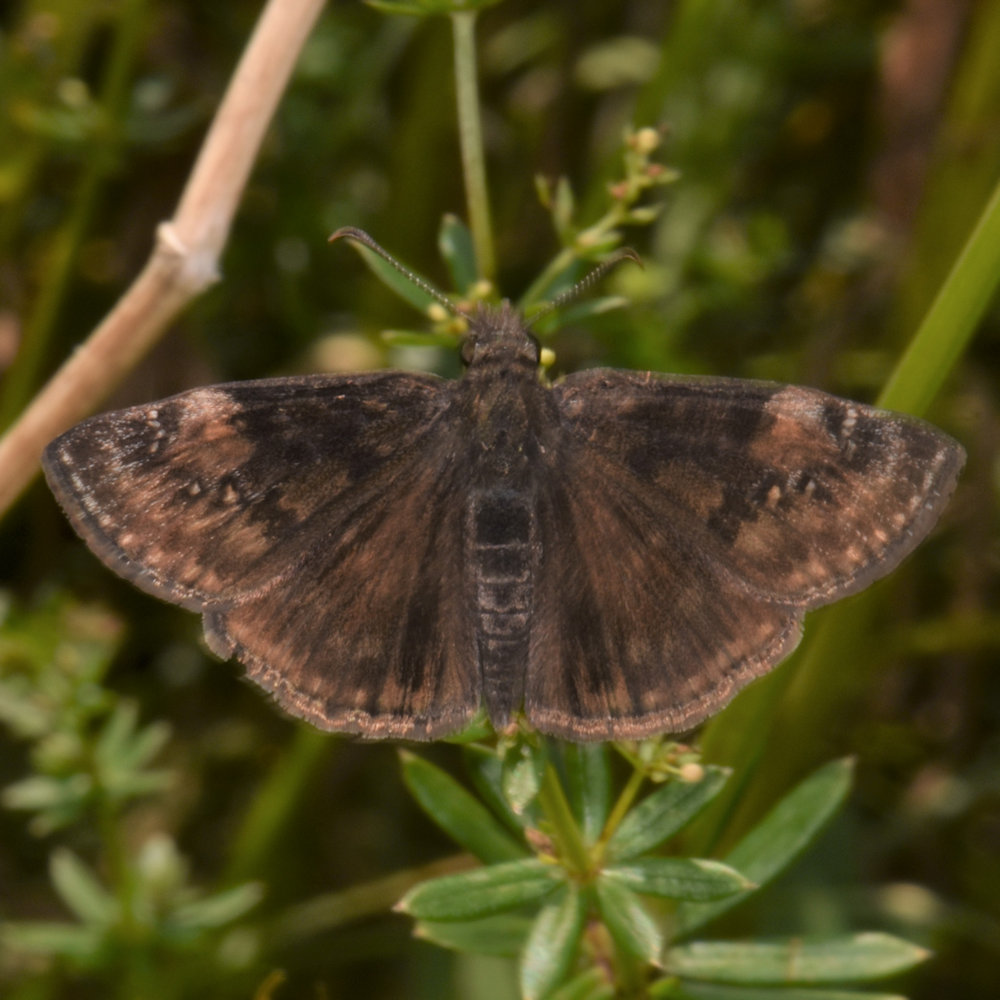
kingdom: Animalia
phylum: Arthropoda
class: Insecta
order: Lepidoptera
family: Hesperiidae
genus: Erynnis
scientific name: Erynnis baptisiae
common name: Wild indigo duskywing
